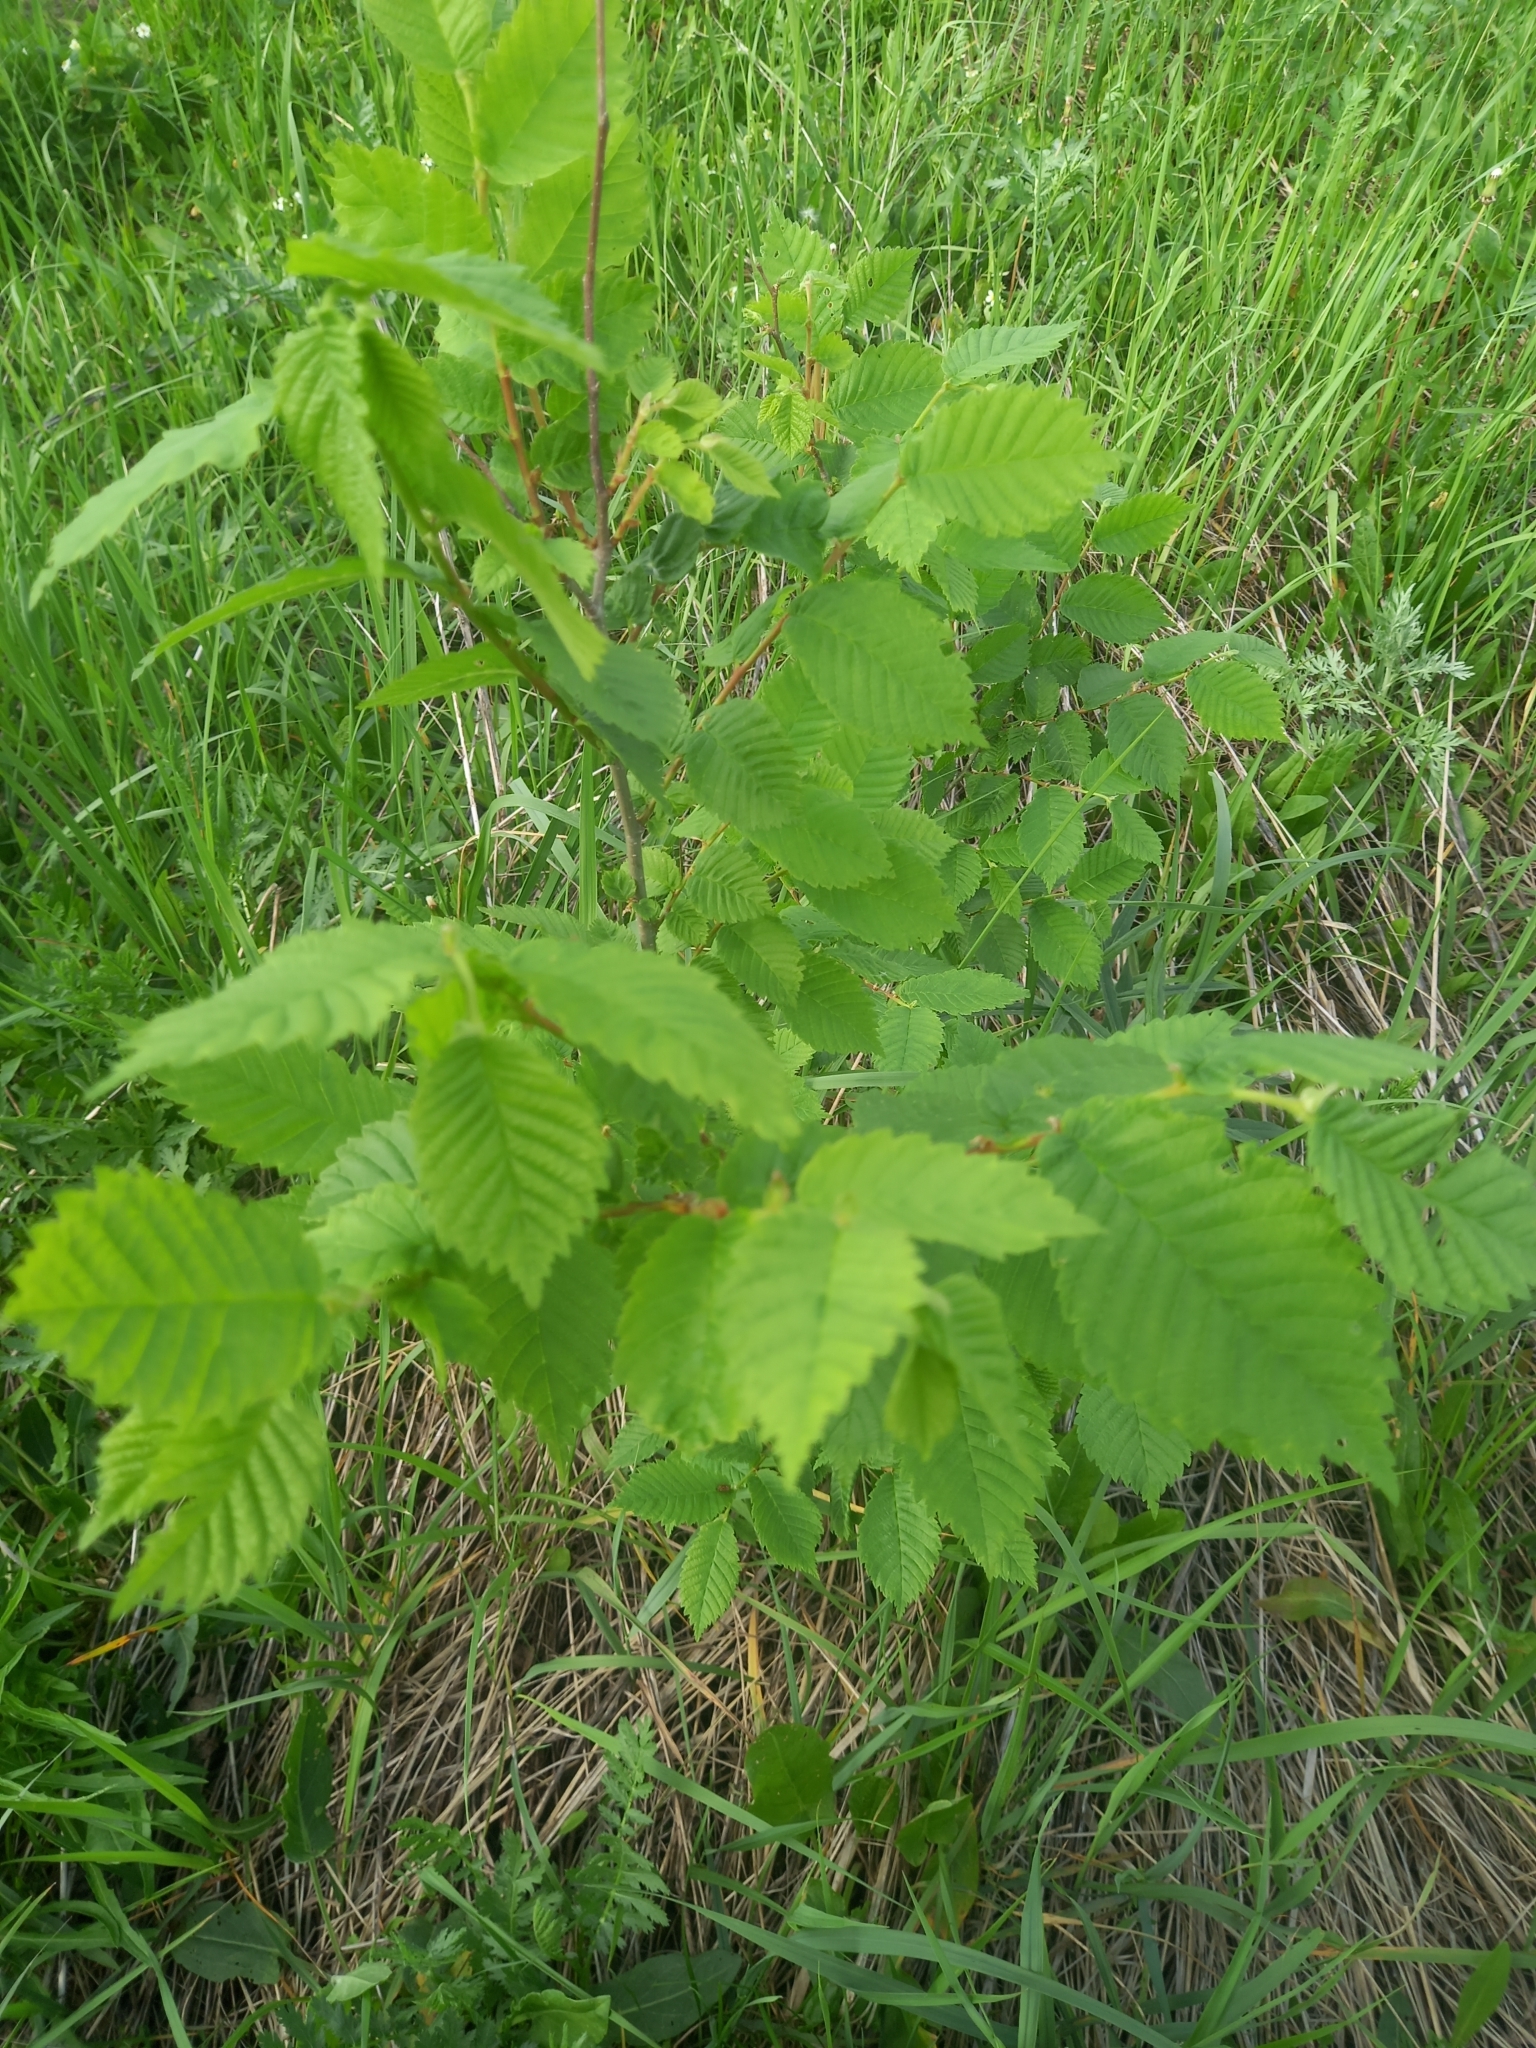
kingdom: Plantae
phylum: Tracheophyta
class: Magnoliopsida
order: Rosales
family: Ulmaceae
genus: Ulmus
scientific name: Ulmus laevis
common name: European white-elm
